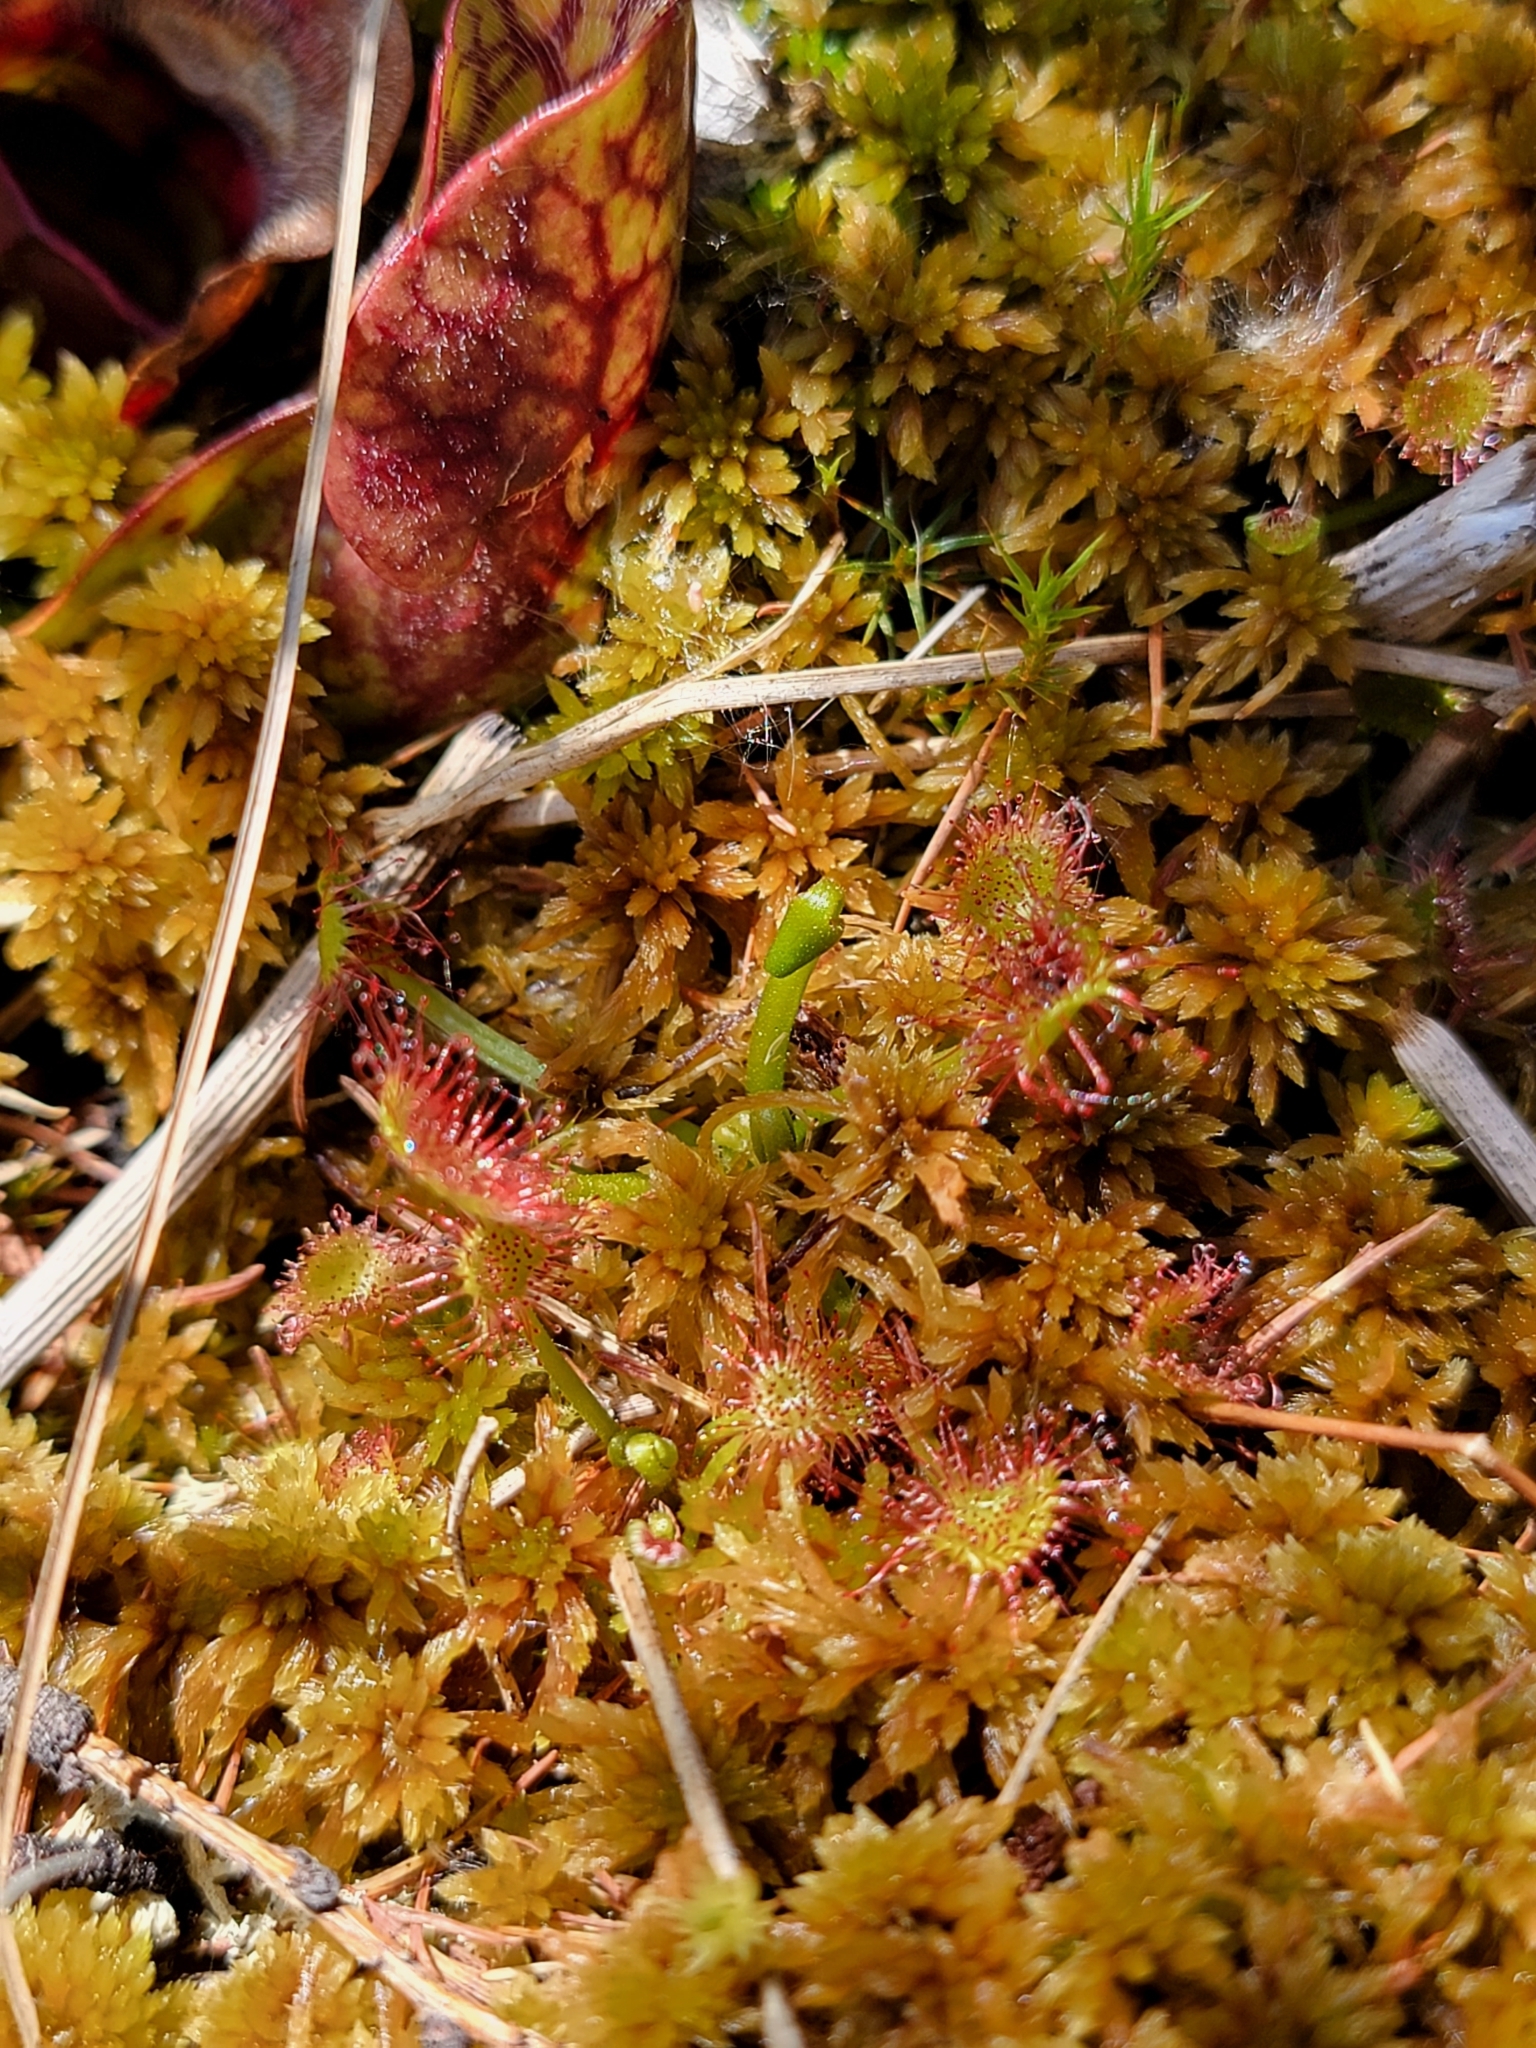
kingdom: Plantae
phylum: Tracheophyta
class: Magnoliopsida
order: Caryophyllales
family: Droseraceae
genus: Drosera
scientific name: Drosera rotundifolia
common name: Round-leaved sundew
